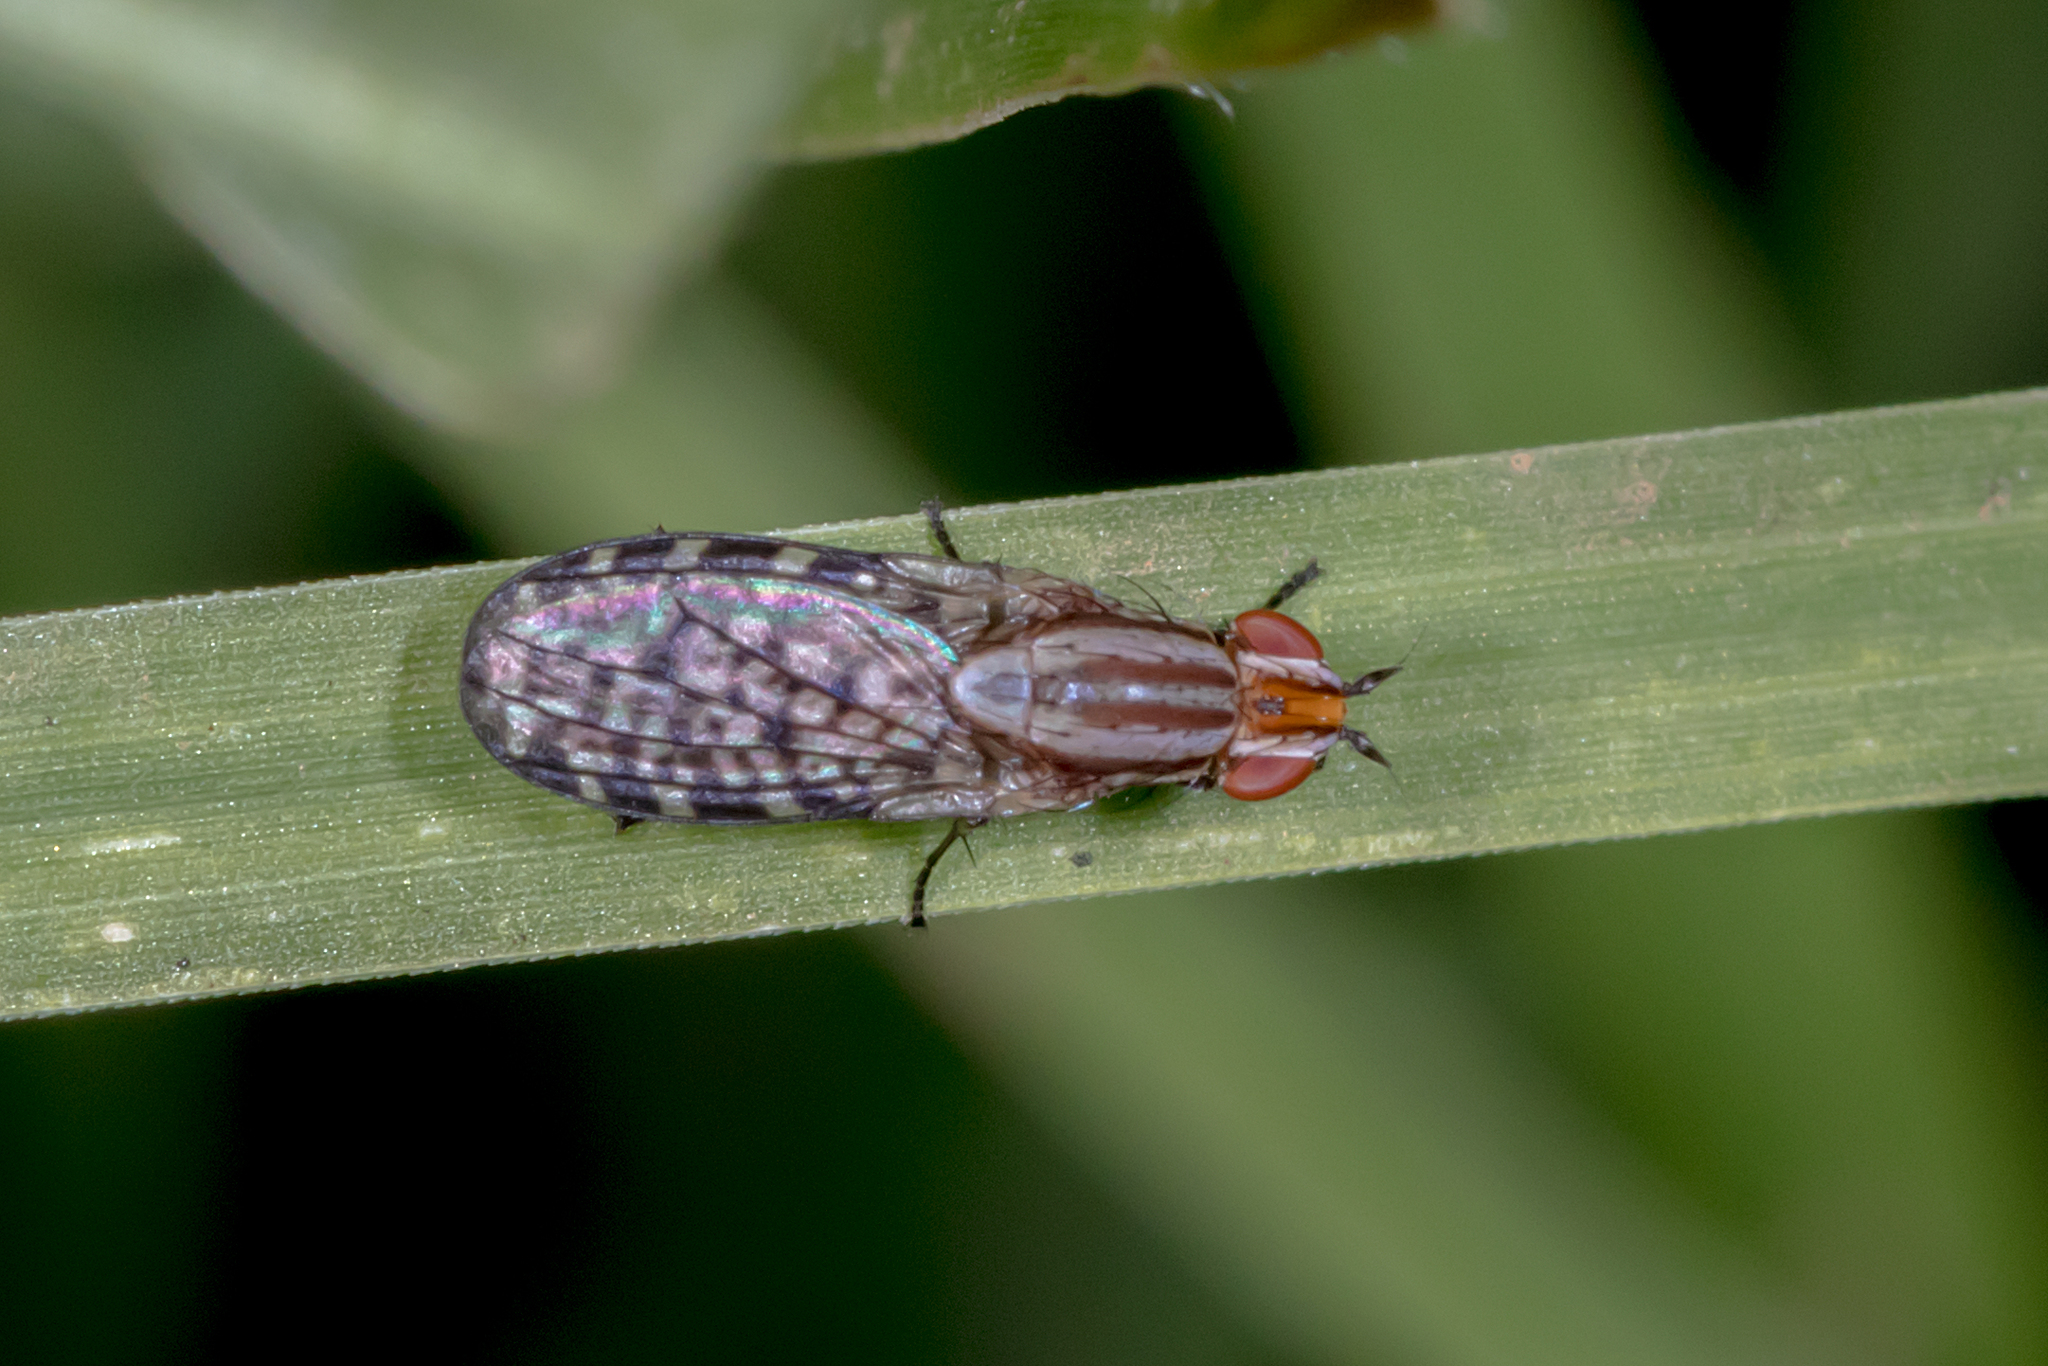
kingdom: Animalia
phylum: Arthropoda
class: Insecta
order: Diptera
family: Lauxaniidae
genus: Sapromyza
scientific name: Sapromyza mallochiana
